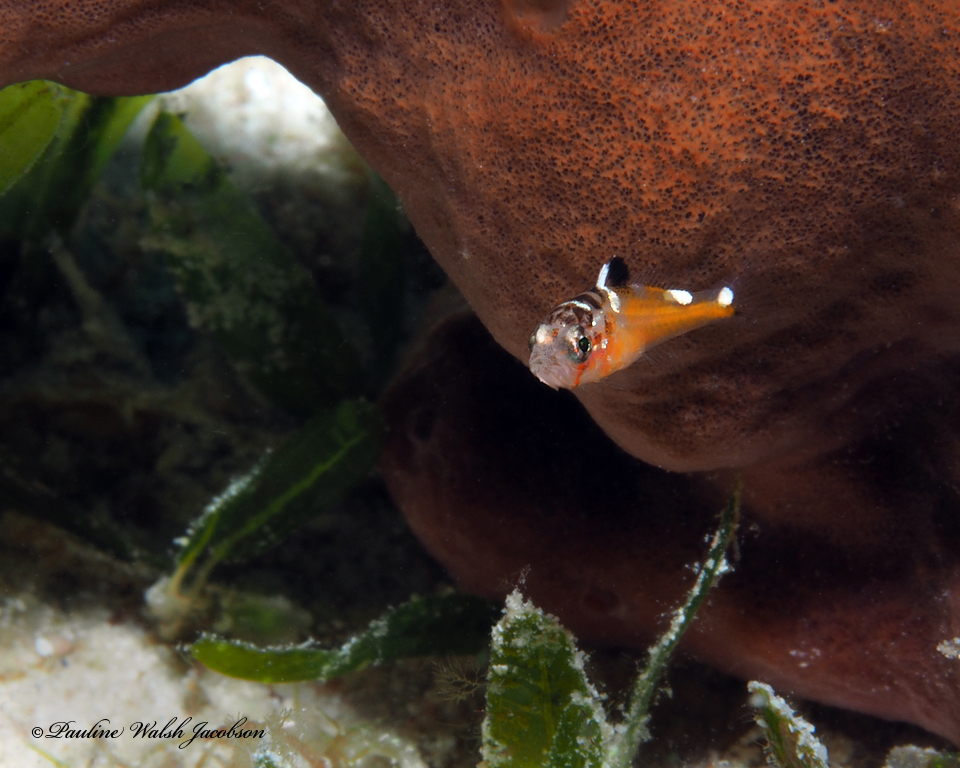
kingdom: Animalia
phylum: Chordata
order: Perciformes
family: Serranidae
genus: Serranus
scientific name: Serranus tabacarius
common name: Tobaccofish
